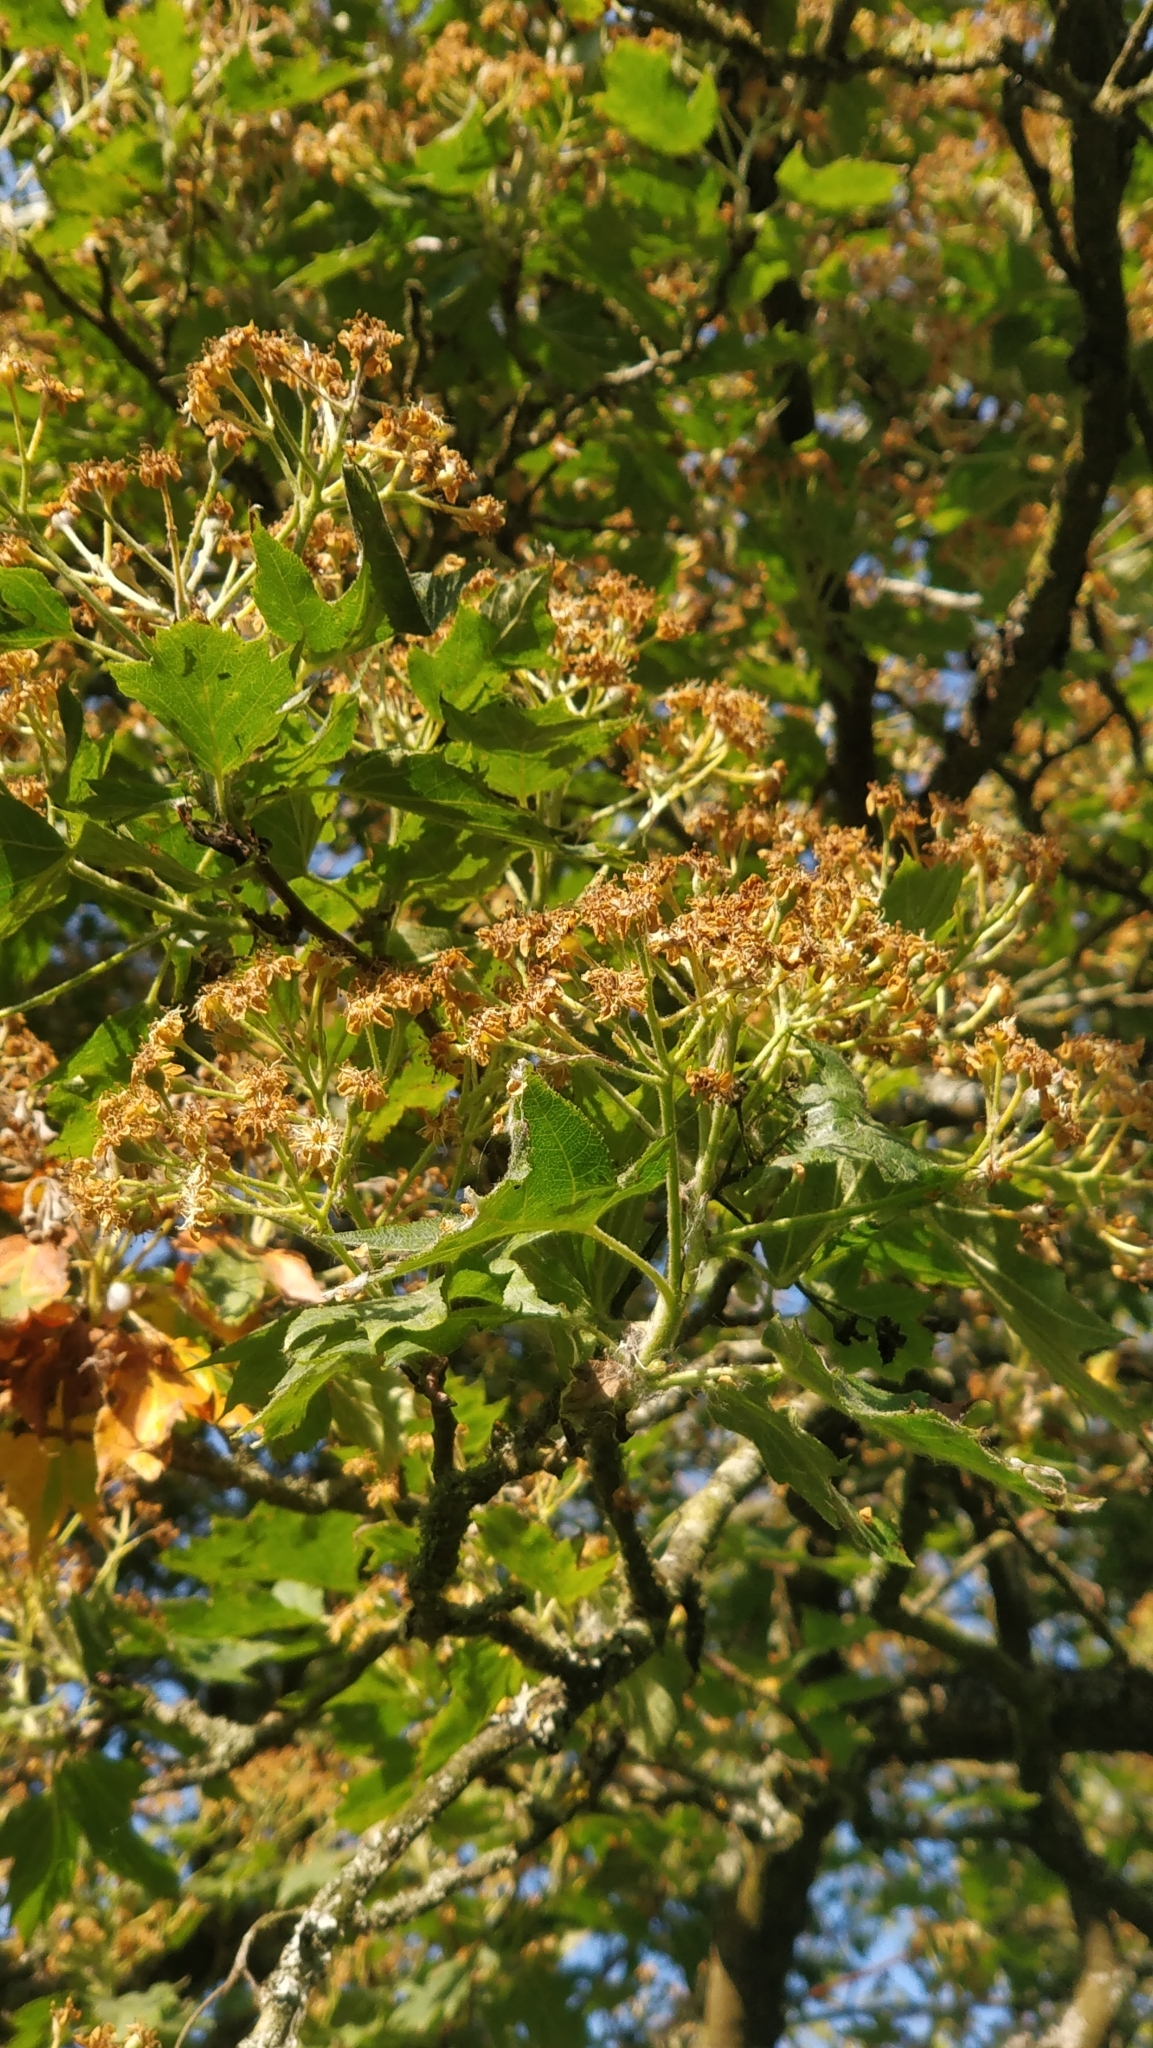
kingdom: Plantae
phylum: Tracheophyta
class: Magnoliopsida
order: Rosales
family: Rosaceae
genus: Torminalis
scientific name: Torminalis glaberrima
